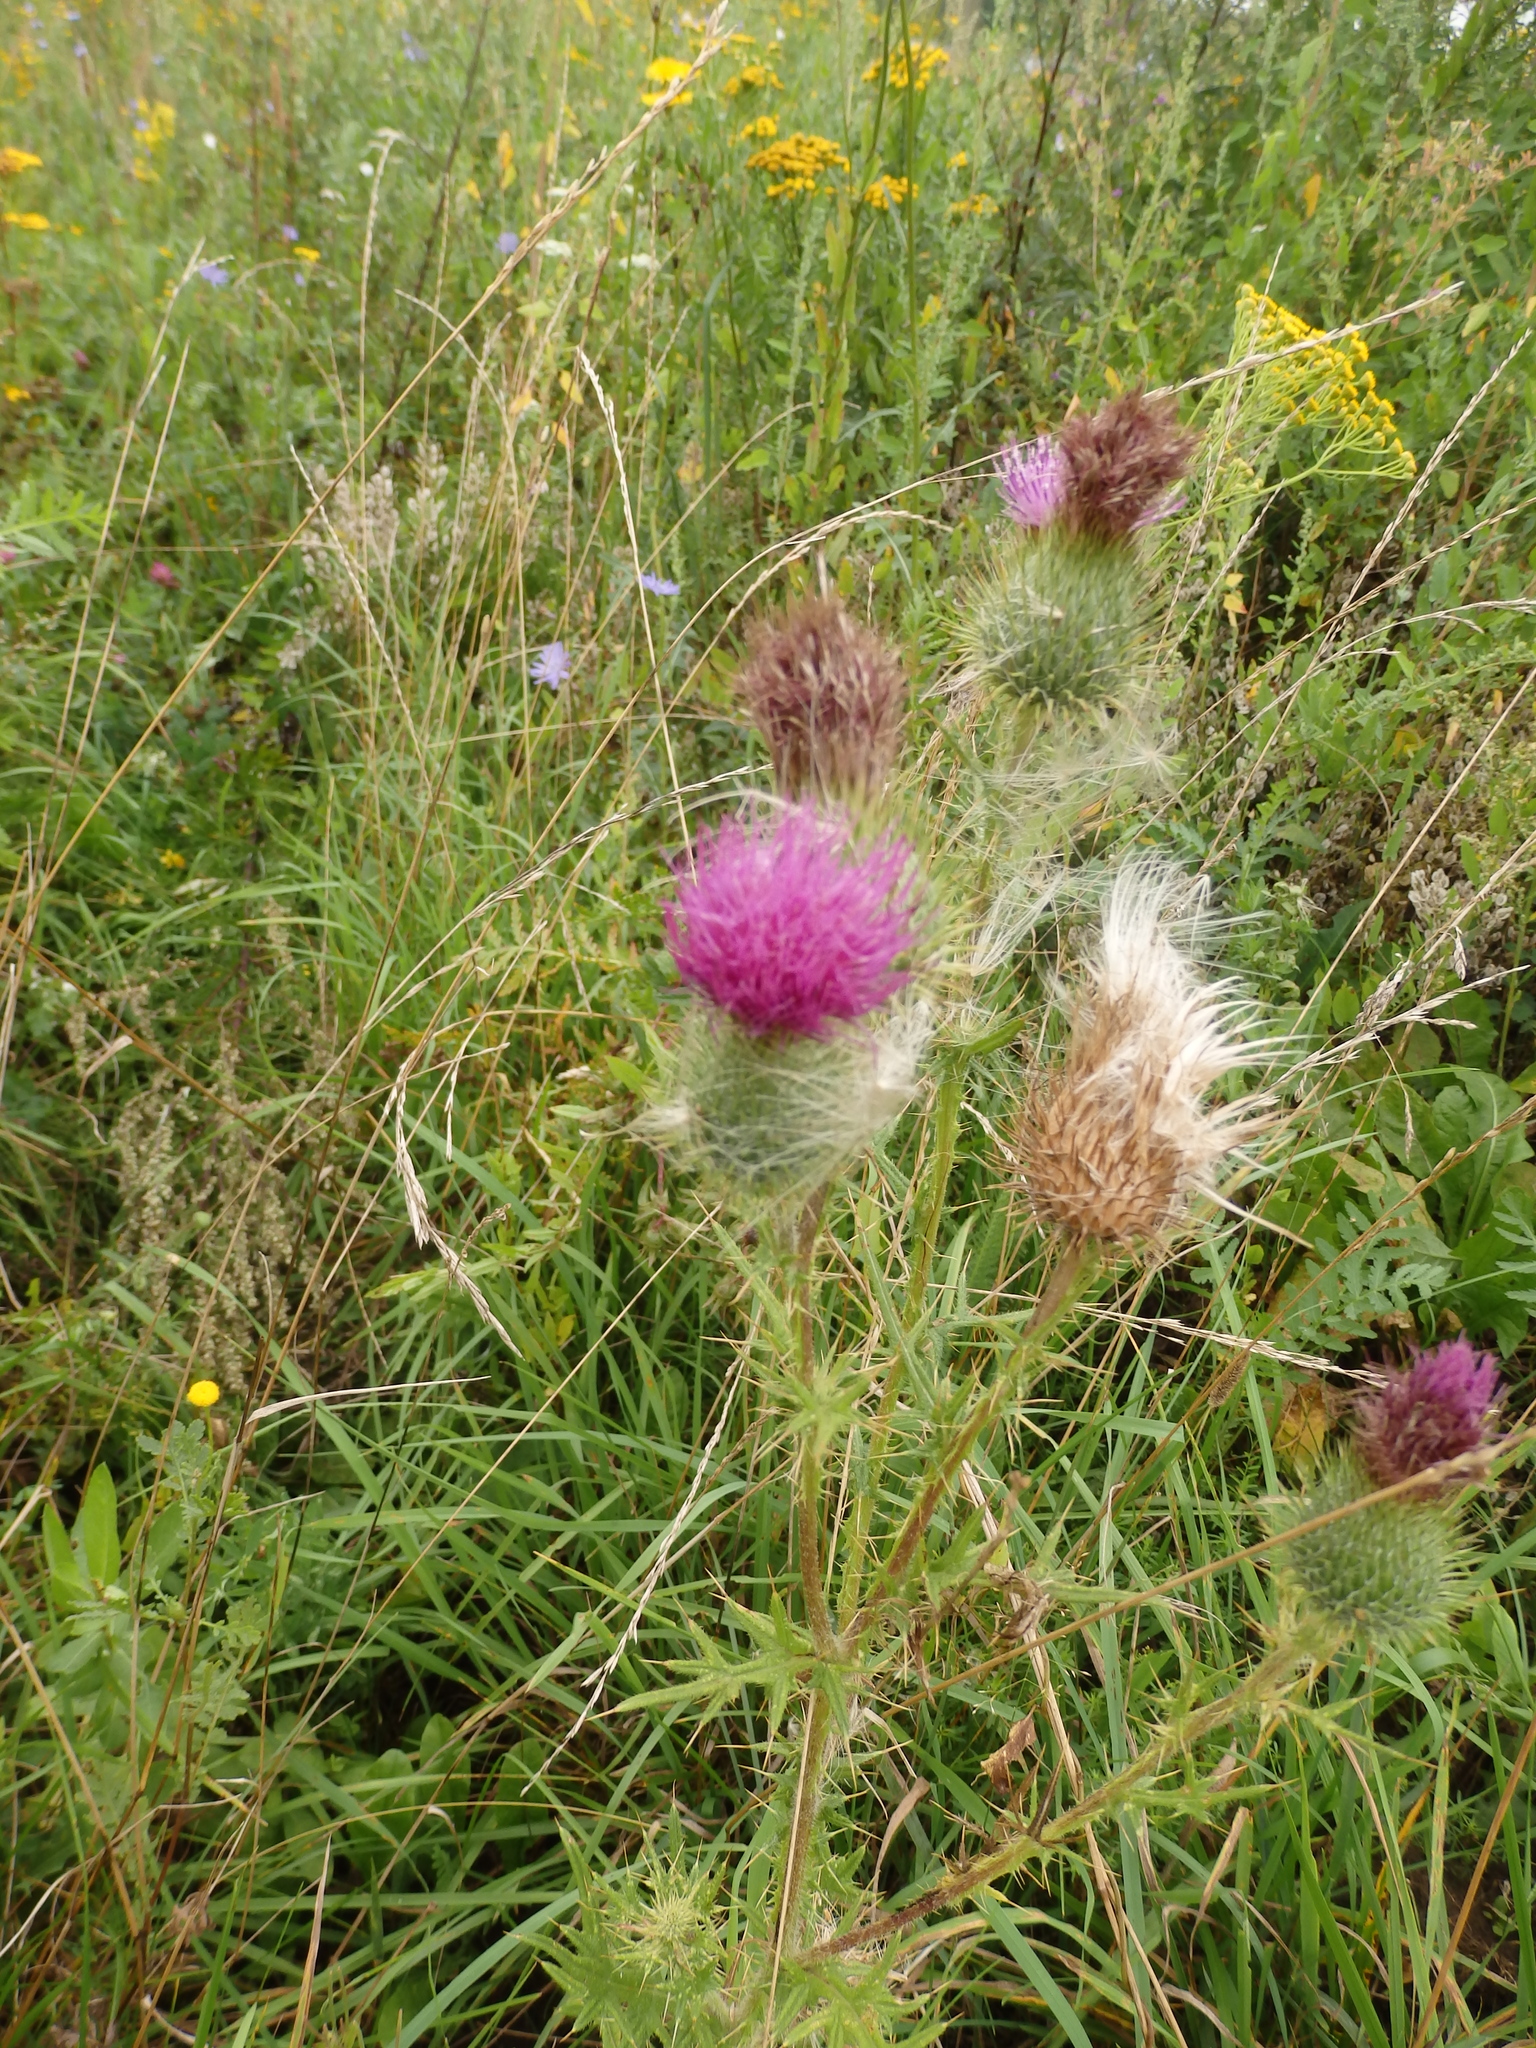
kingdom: Plantae
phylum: Tracheophyta
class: Magnoliopsida
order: Asterales
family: Asteraceae
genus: Cirsium
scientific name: Cirsium vulgare
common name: Bull thistle
